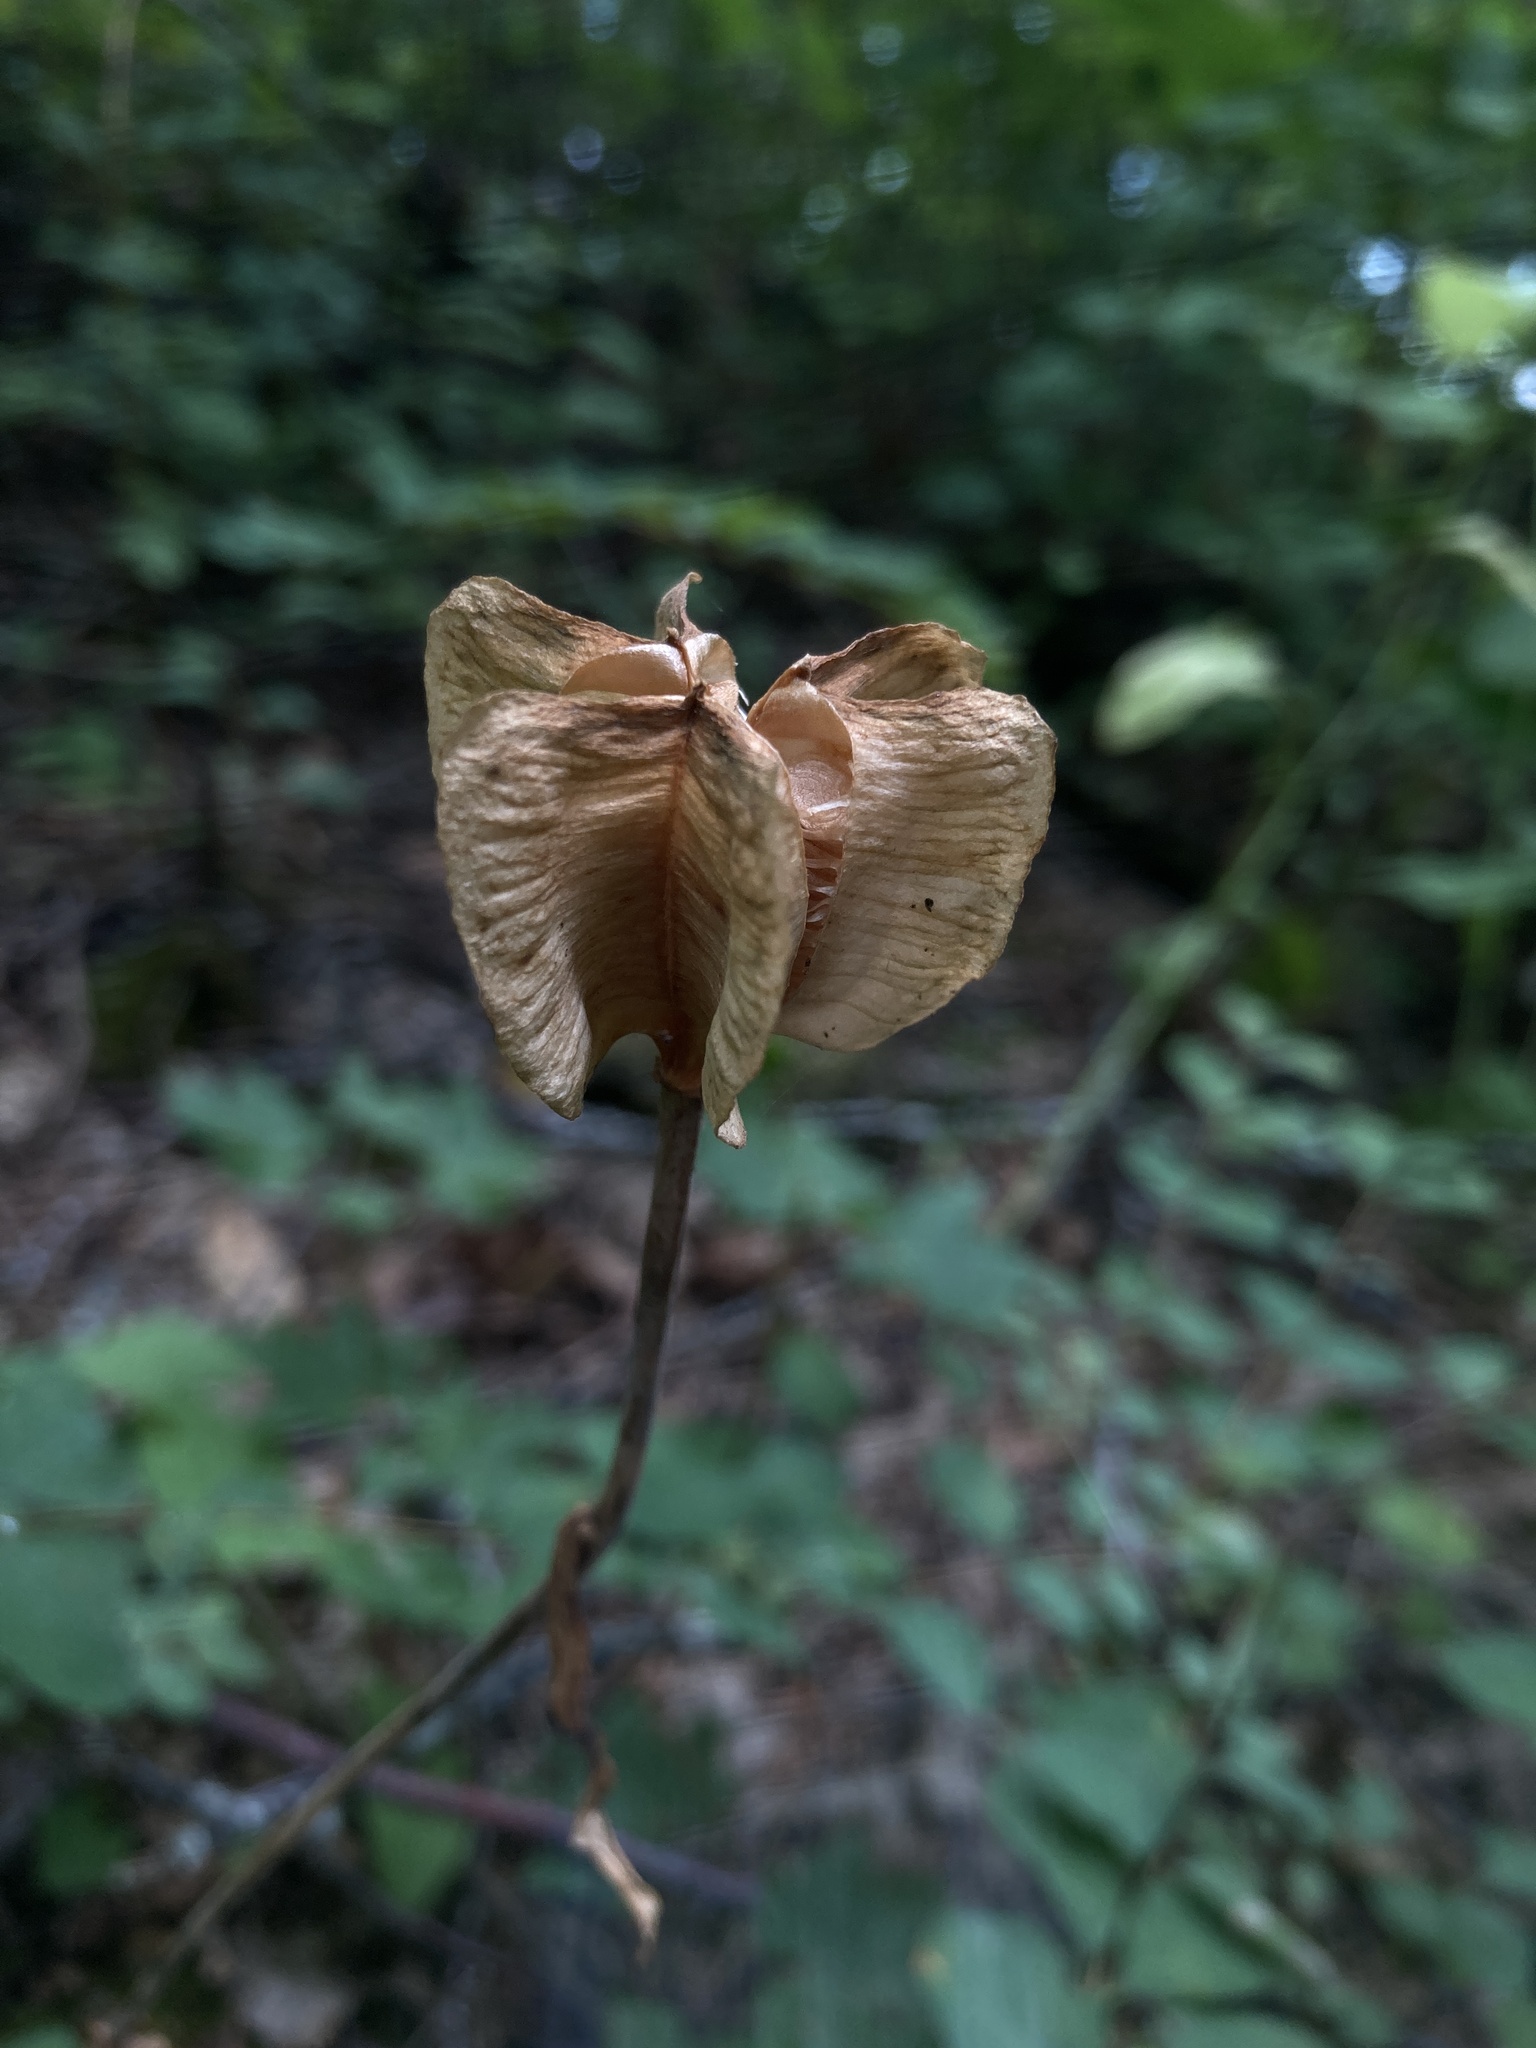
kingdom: Plantae
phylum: Tracheophyta
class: Liliopsida
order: Liliales
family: Liliaceae
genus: Fritillaria
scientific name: Fritillaria affinis
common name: Ojai fritillary
